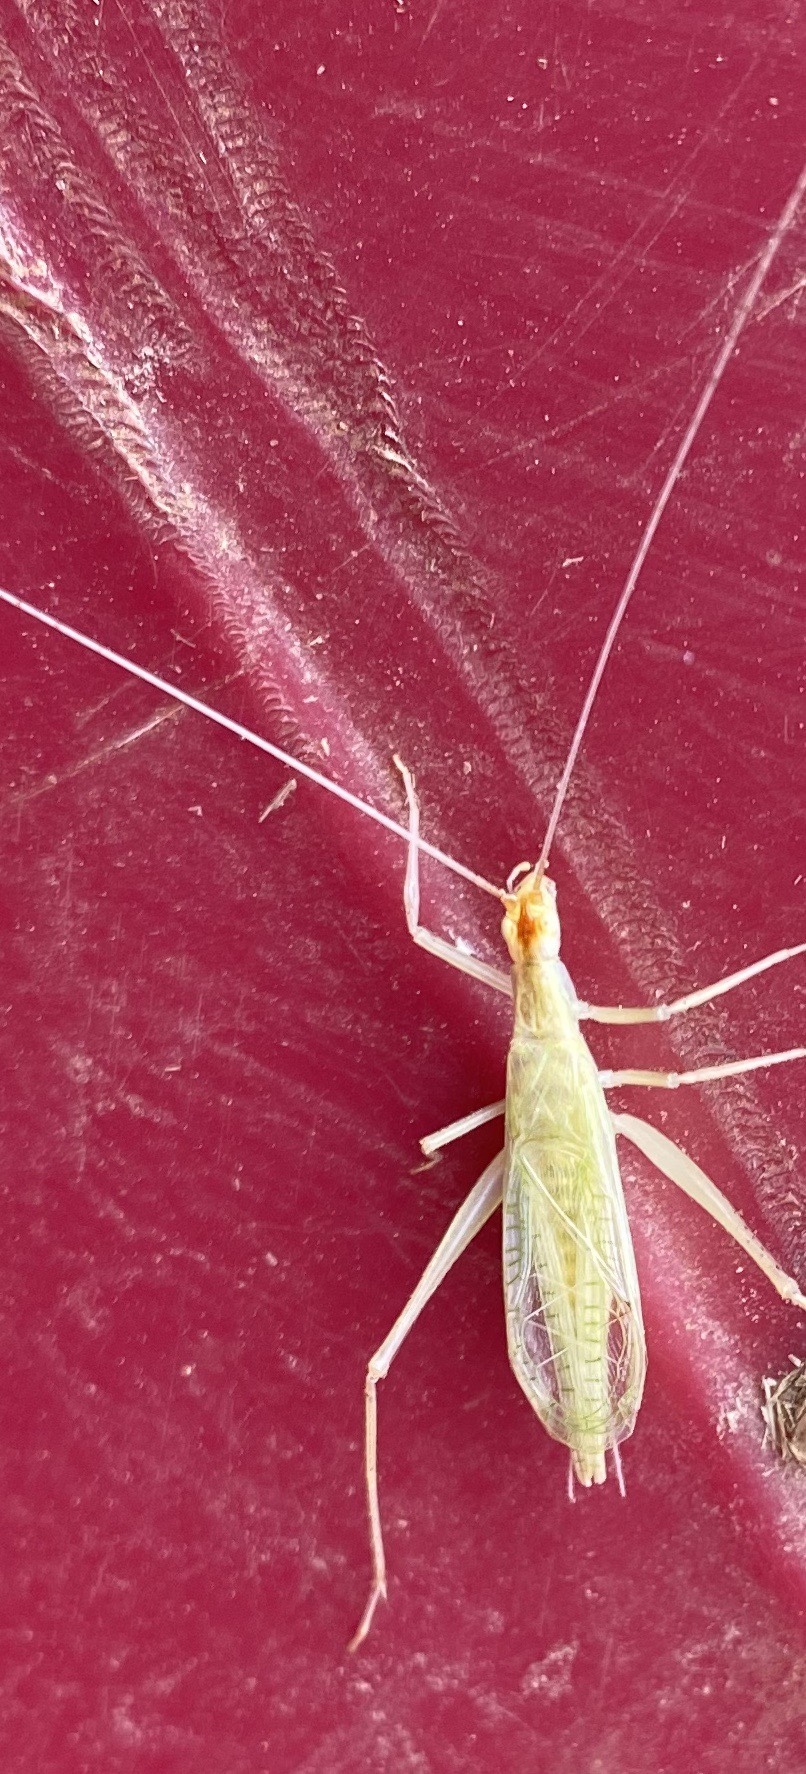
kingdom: Animalia
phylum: Arthropoda
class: Insecta
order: Orthoptera
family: Gryllidae
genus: Oecanthus
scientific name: Oecanthus niveus
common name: Narrow-winged tree cricket
